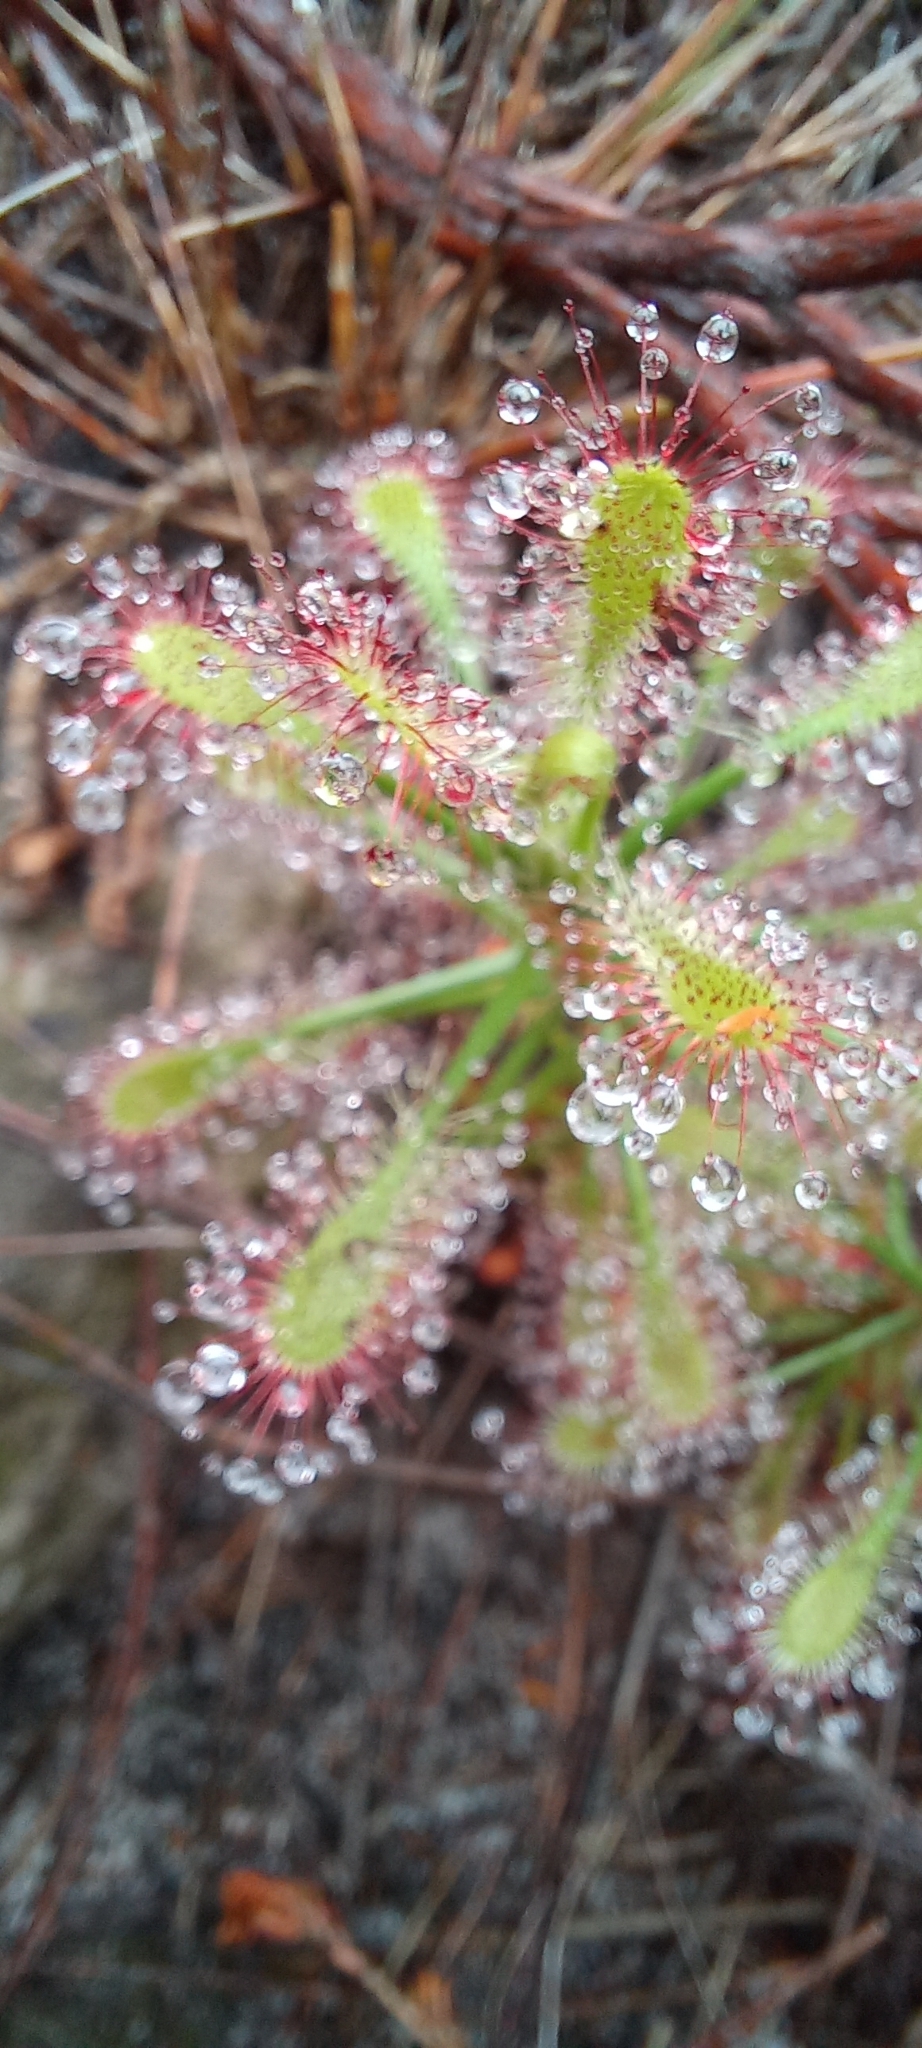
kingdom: Plantae
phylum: Tracheophyta
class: Magnoliopsida
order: Caryophyllales
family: Droseraceae
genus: Drosera
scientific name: Drosera glabripes
